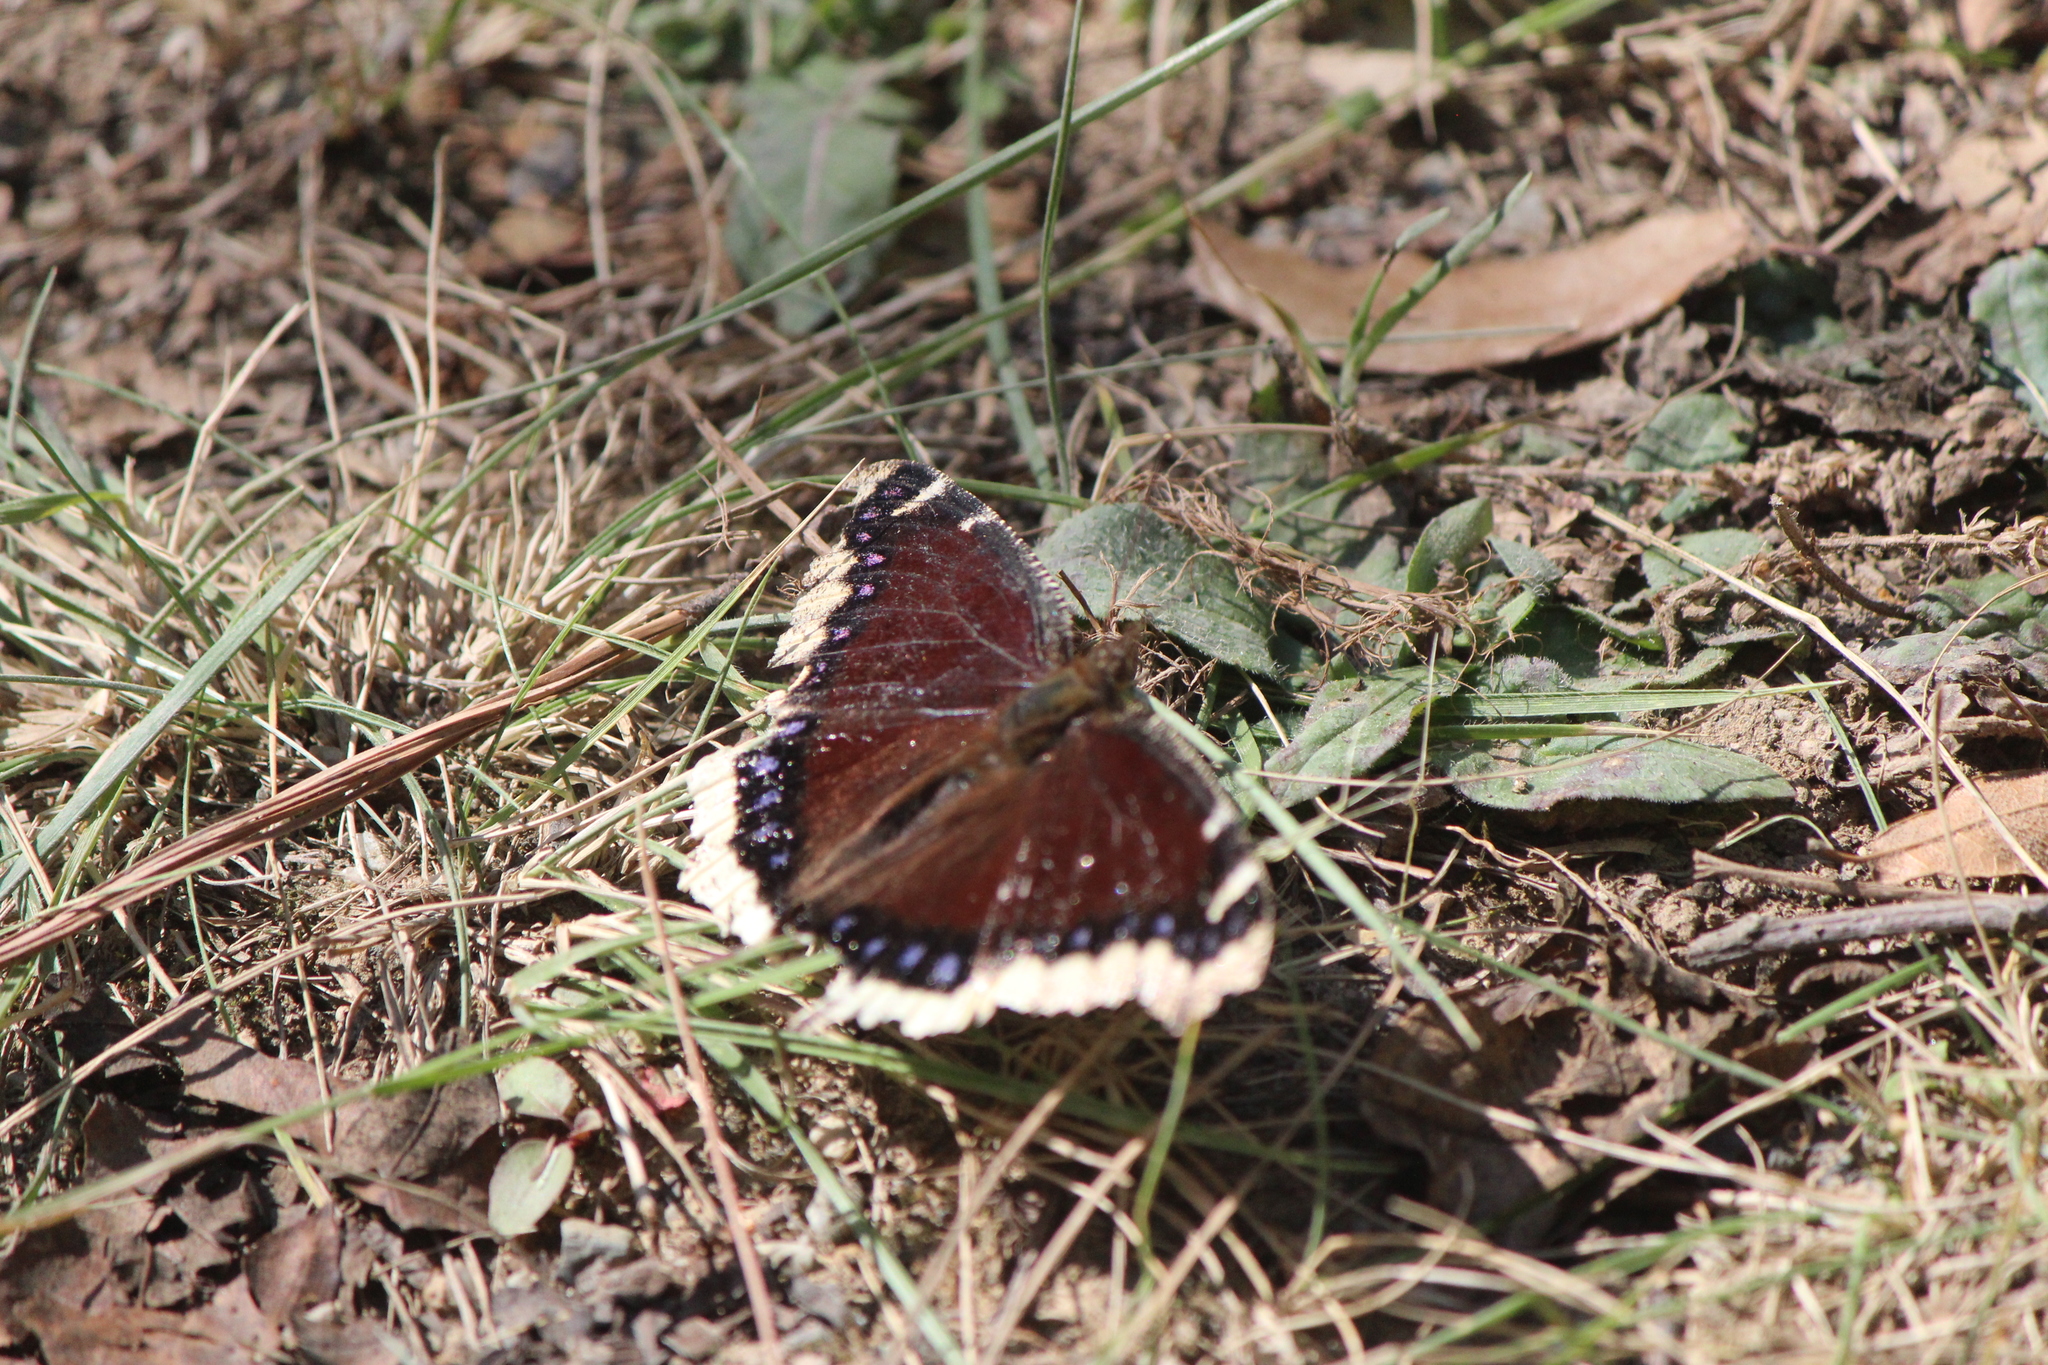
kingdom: Animalia
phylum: Arthropoda
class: Insecta
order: Lepidoptera
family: Nymphalidae
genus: Nymphalis
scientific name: Nymphalis antiopa
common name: Camberwell beauty
